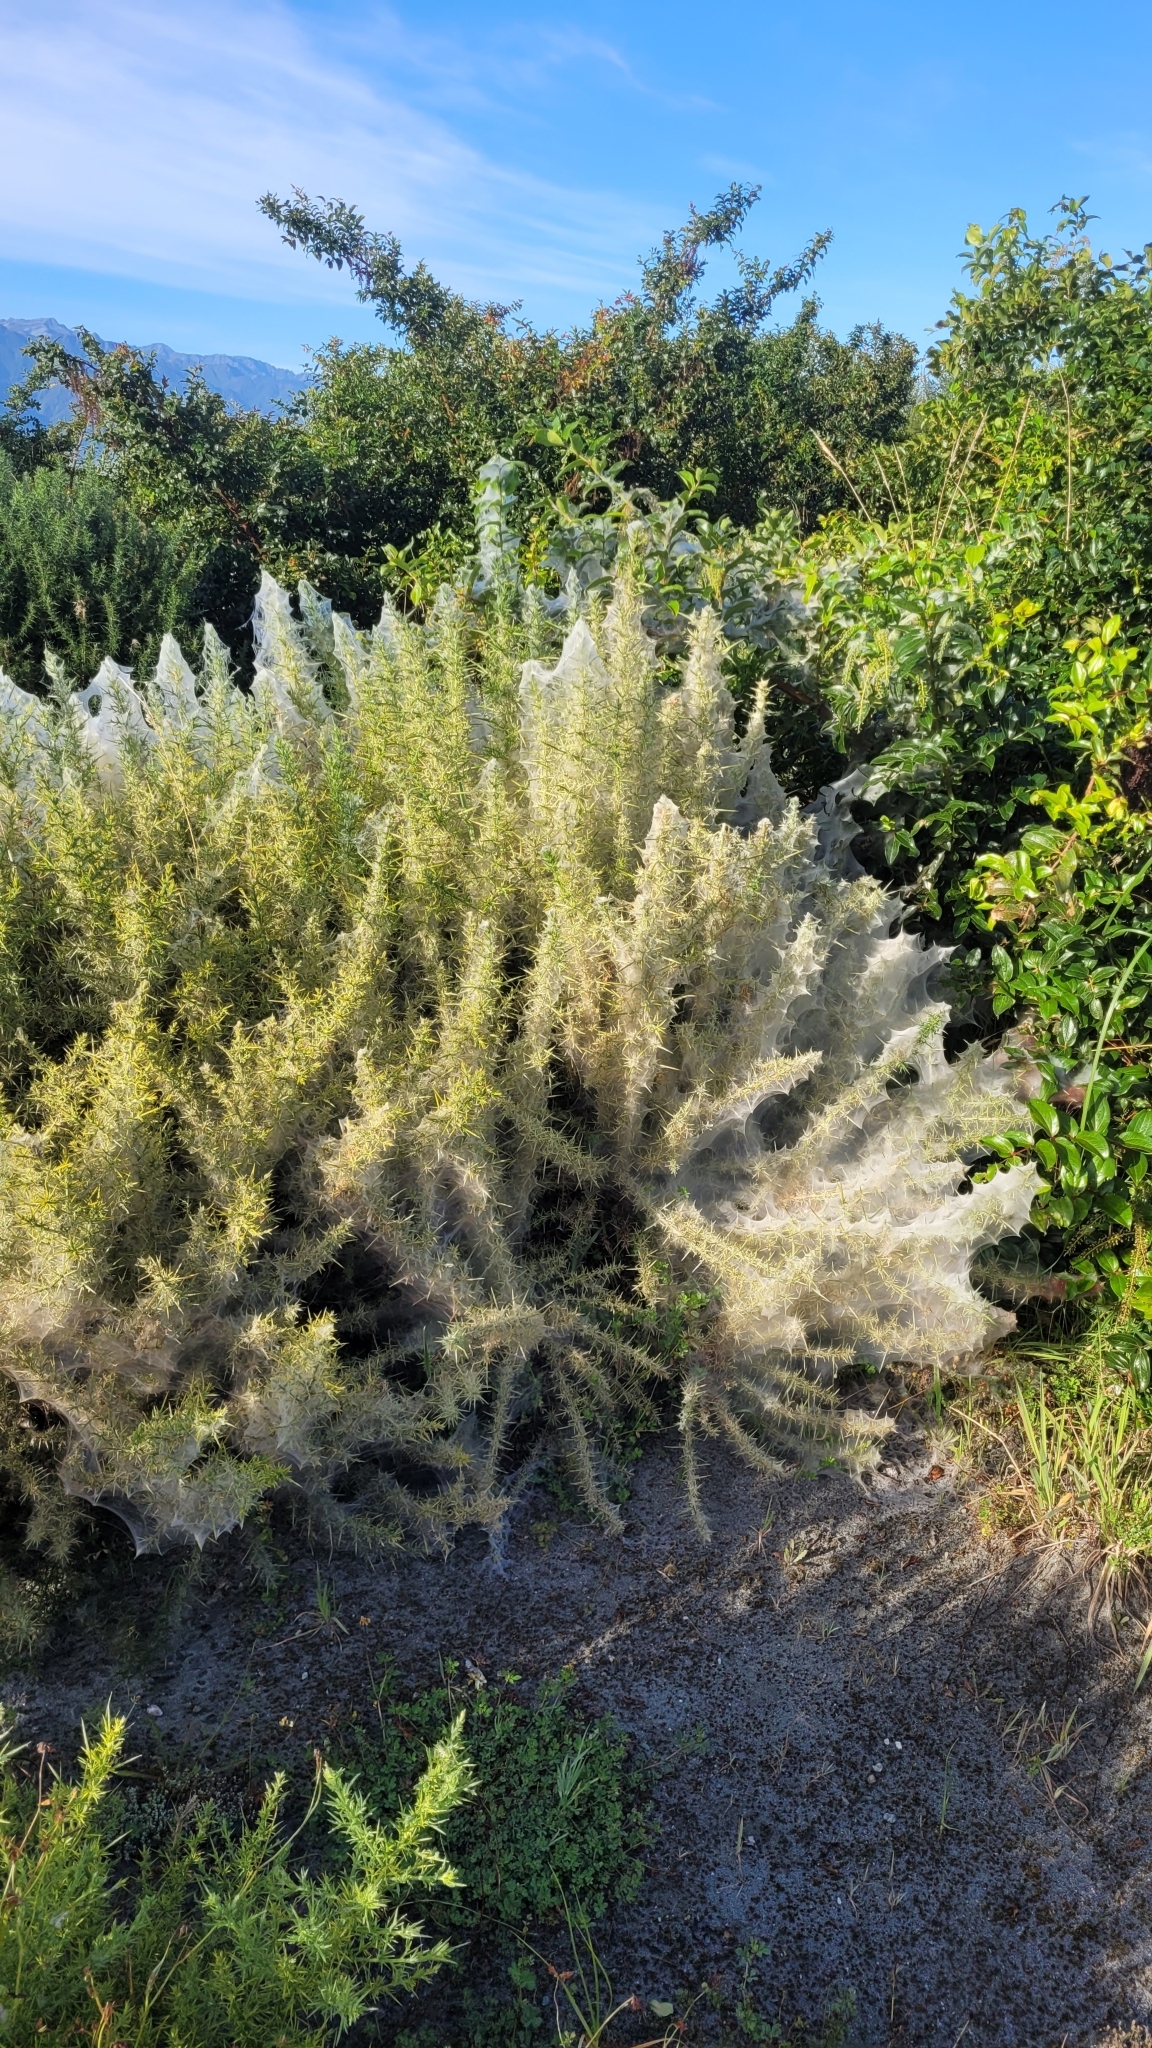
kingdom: Plantae
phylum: Tracheophyta
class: Magnoliopsida
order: Fabales
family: Fabaceae
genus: Ulex
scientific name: Ulex europaeus
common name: Common gorse
